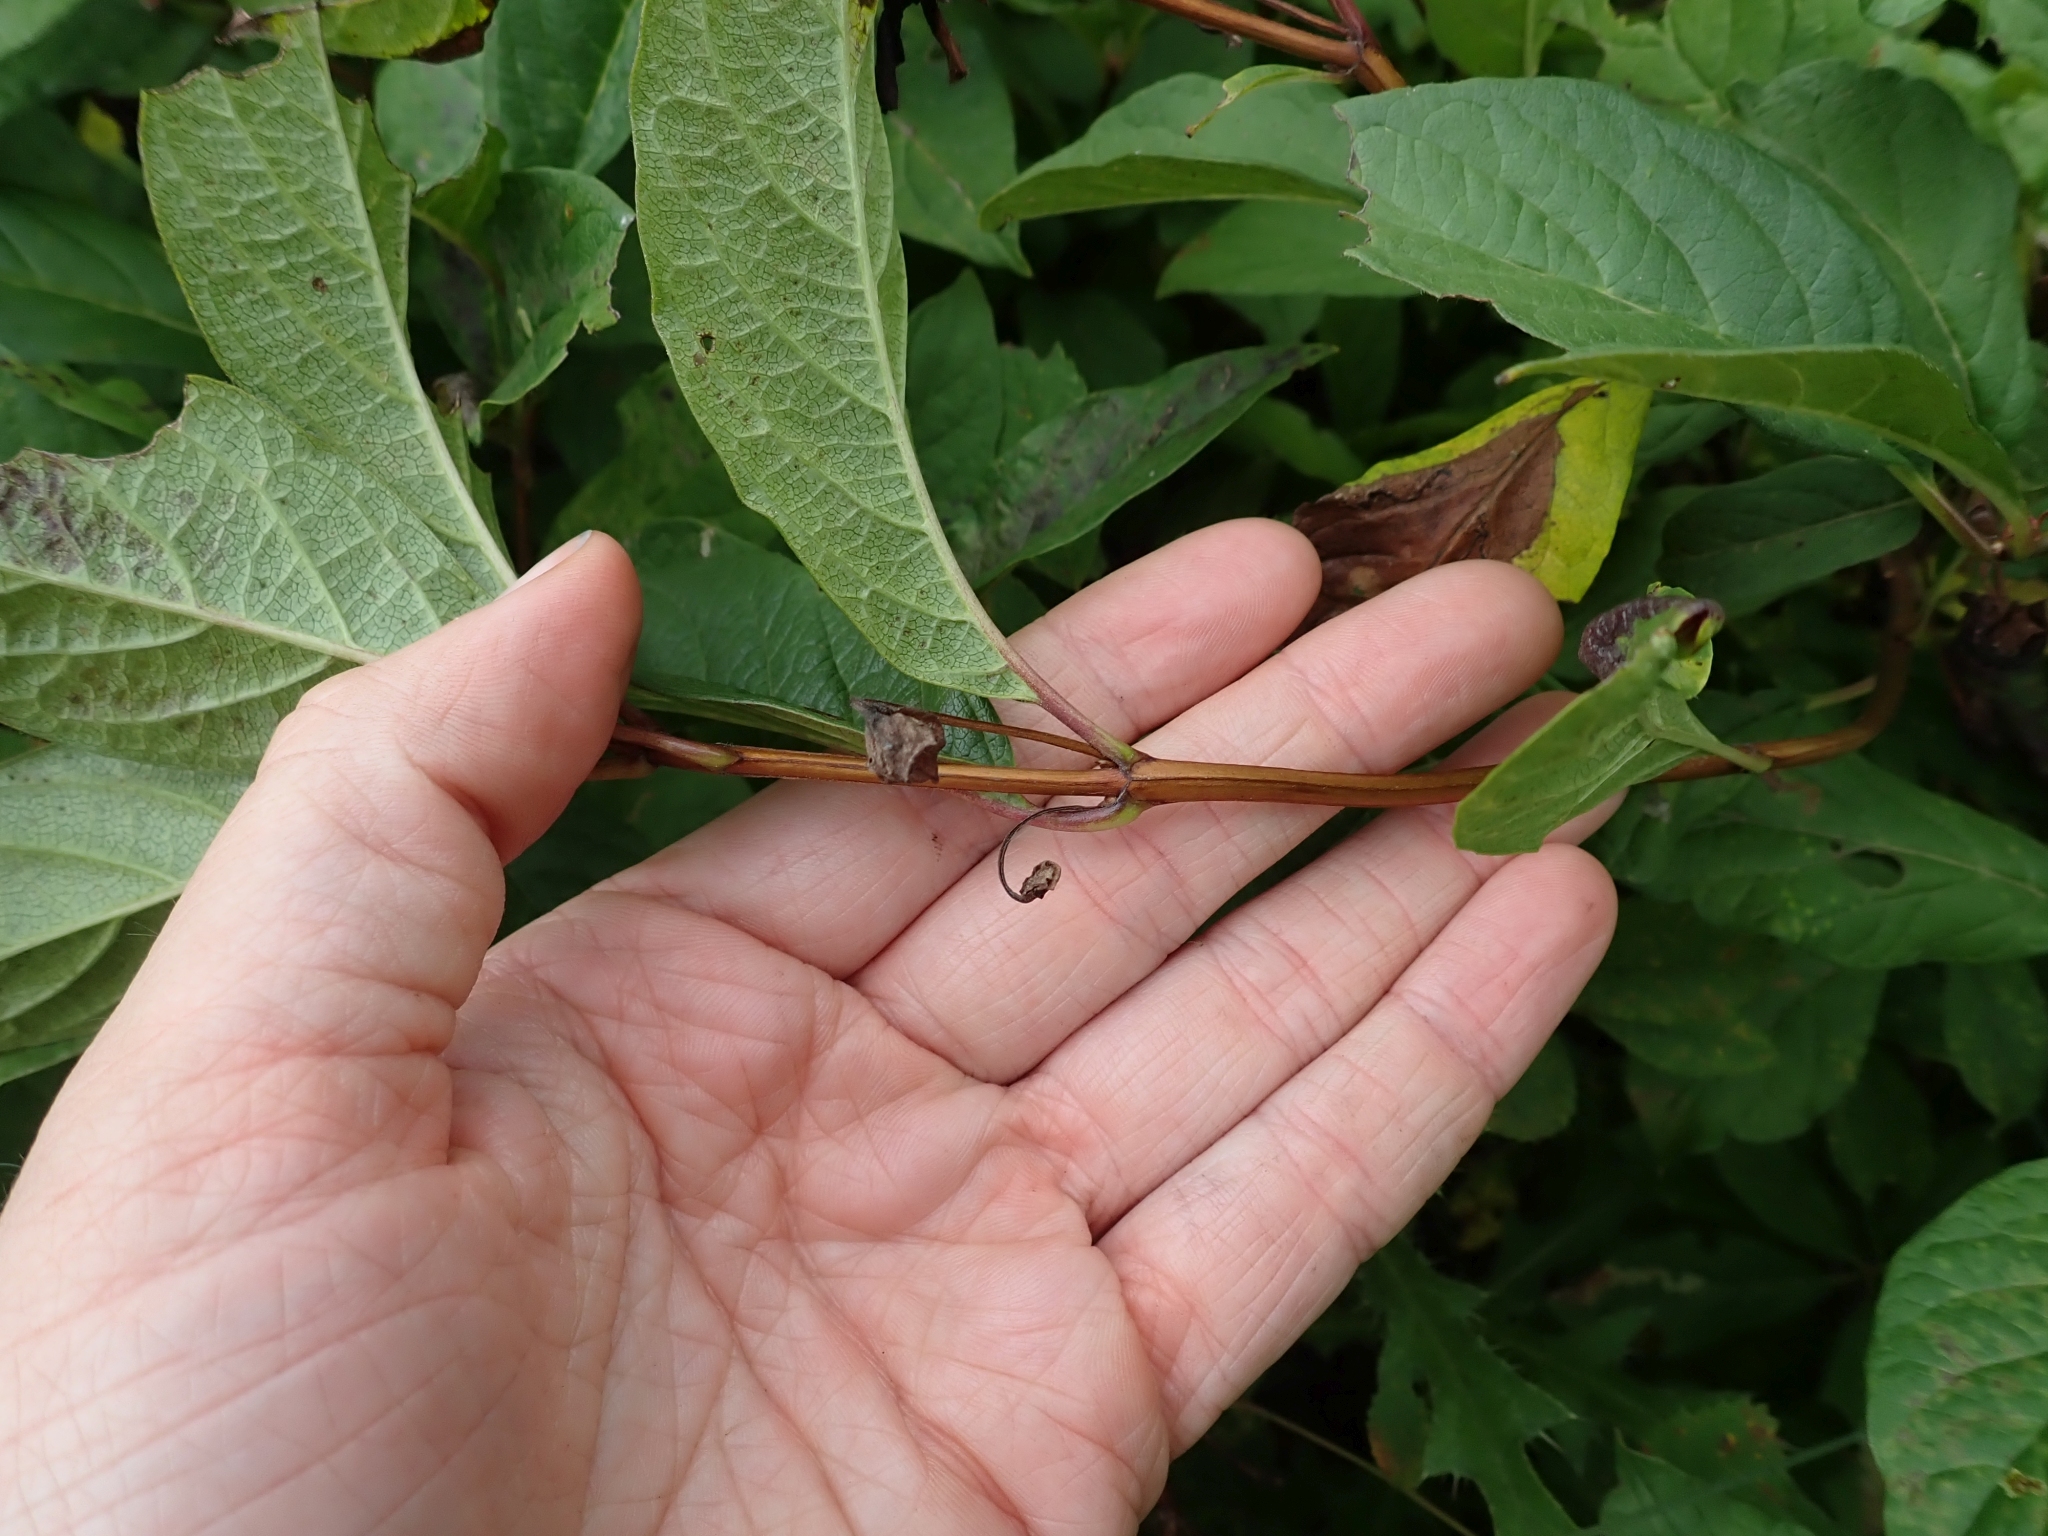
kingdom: Plantae
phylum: Tracheophyta
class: Magnoliopsida
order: Dipsacales
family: Caprifoliaceae
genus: Lonicera
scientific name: Lonicera involucrata
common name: Californian honeysuckle
